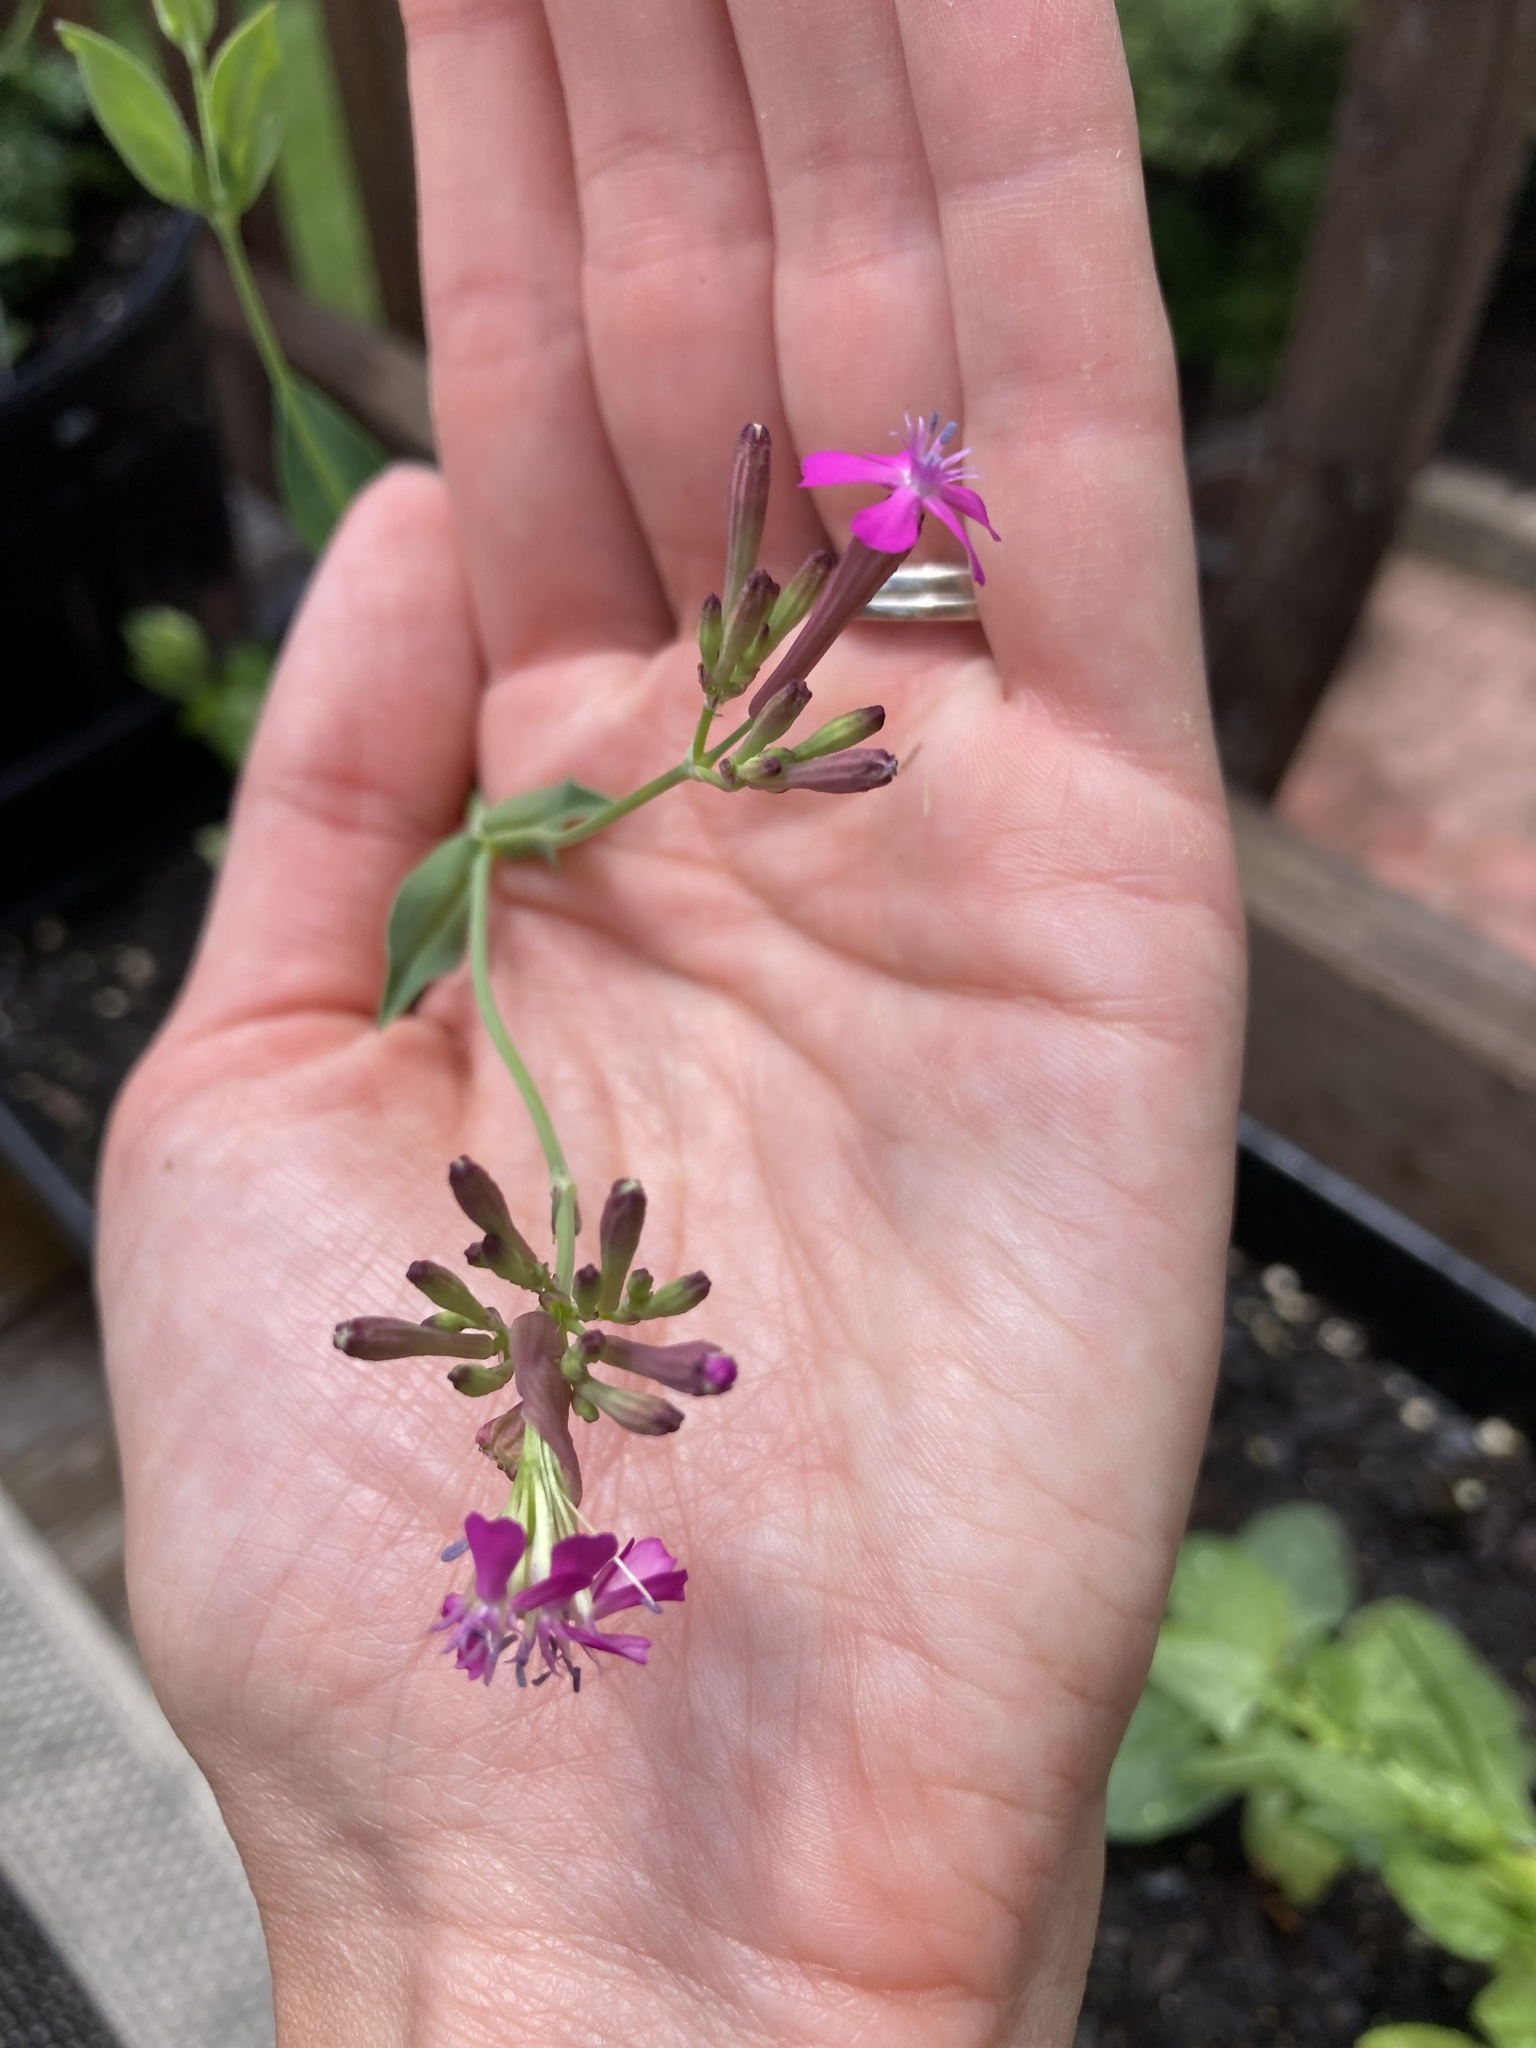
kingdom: Plantae
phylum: Tracheophyta
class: Magnoliopsida
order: Caryophyllales
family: Caryophyllaceae
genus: Atocion
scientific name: Atocion armeria
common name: Sweet william catchfly
